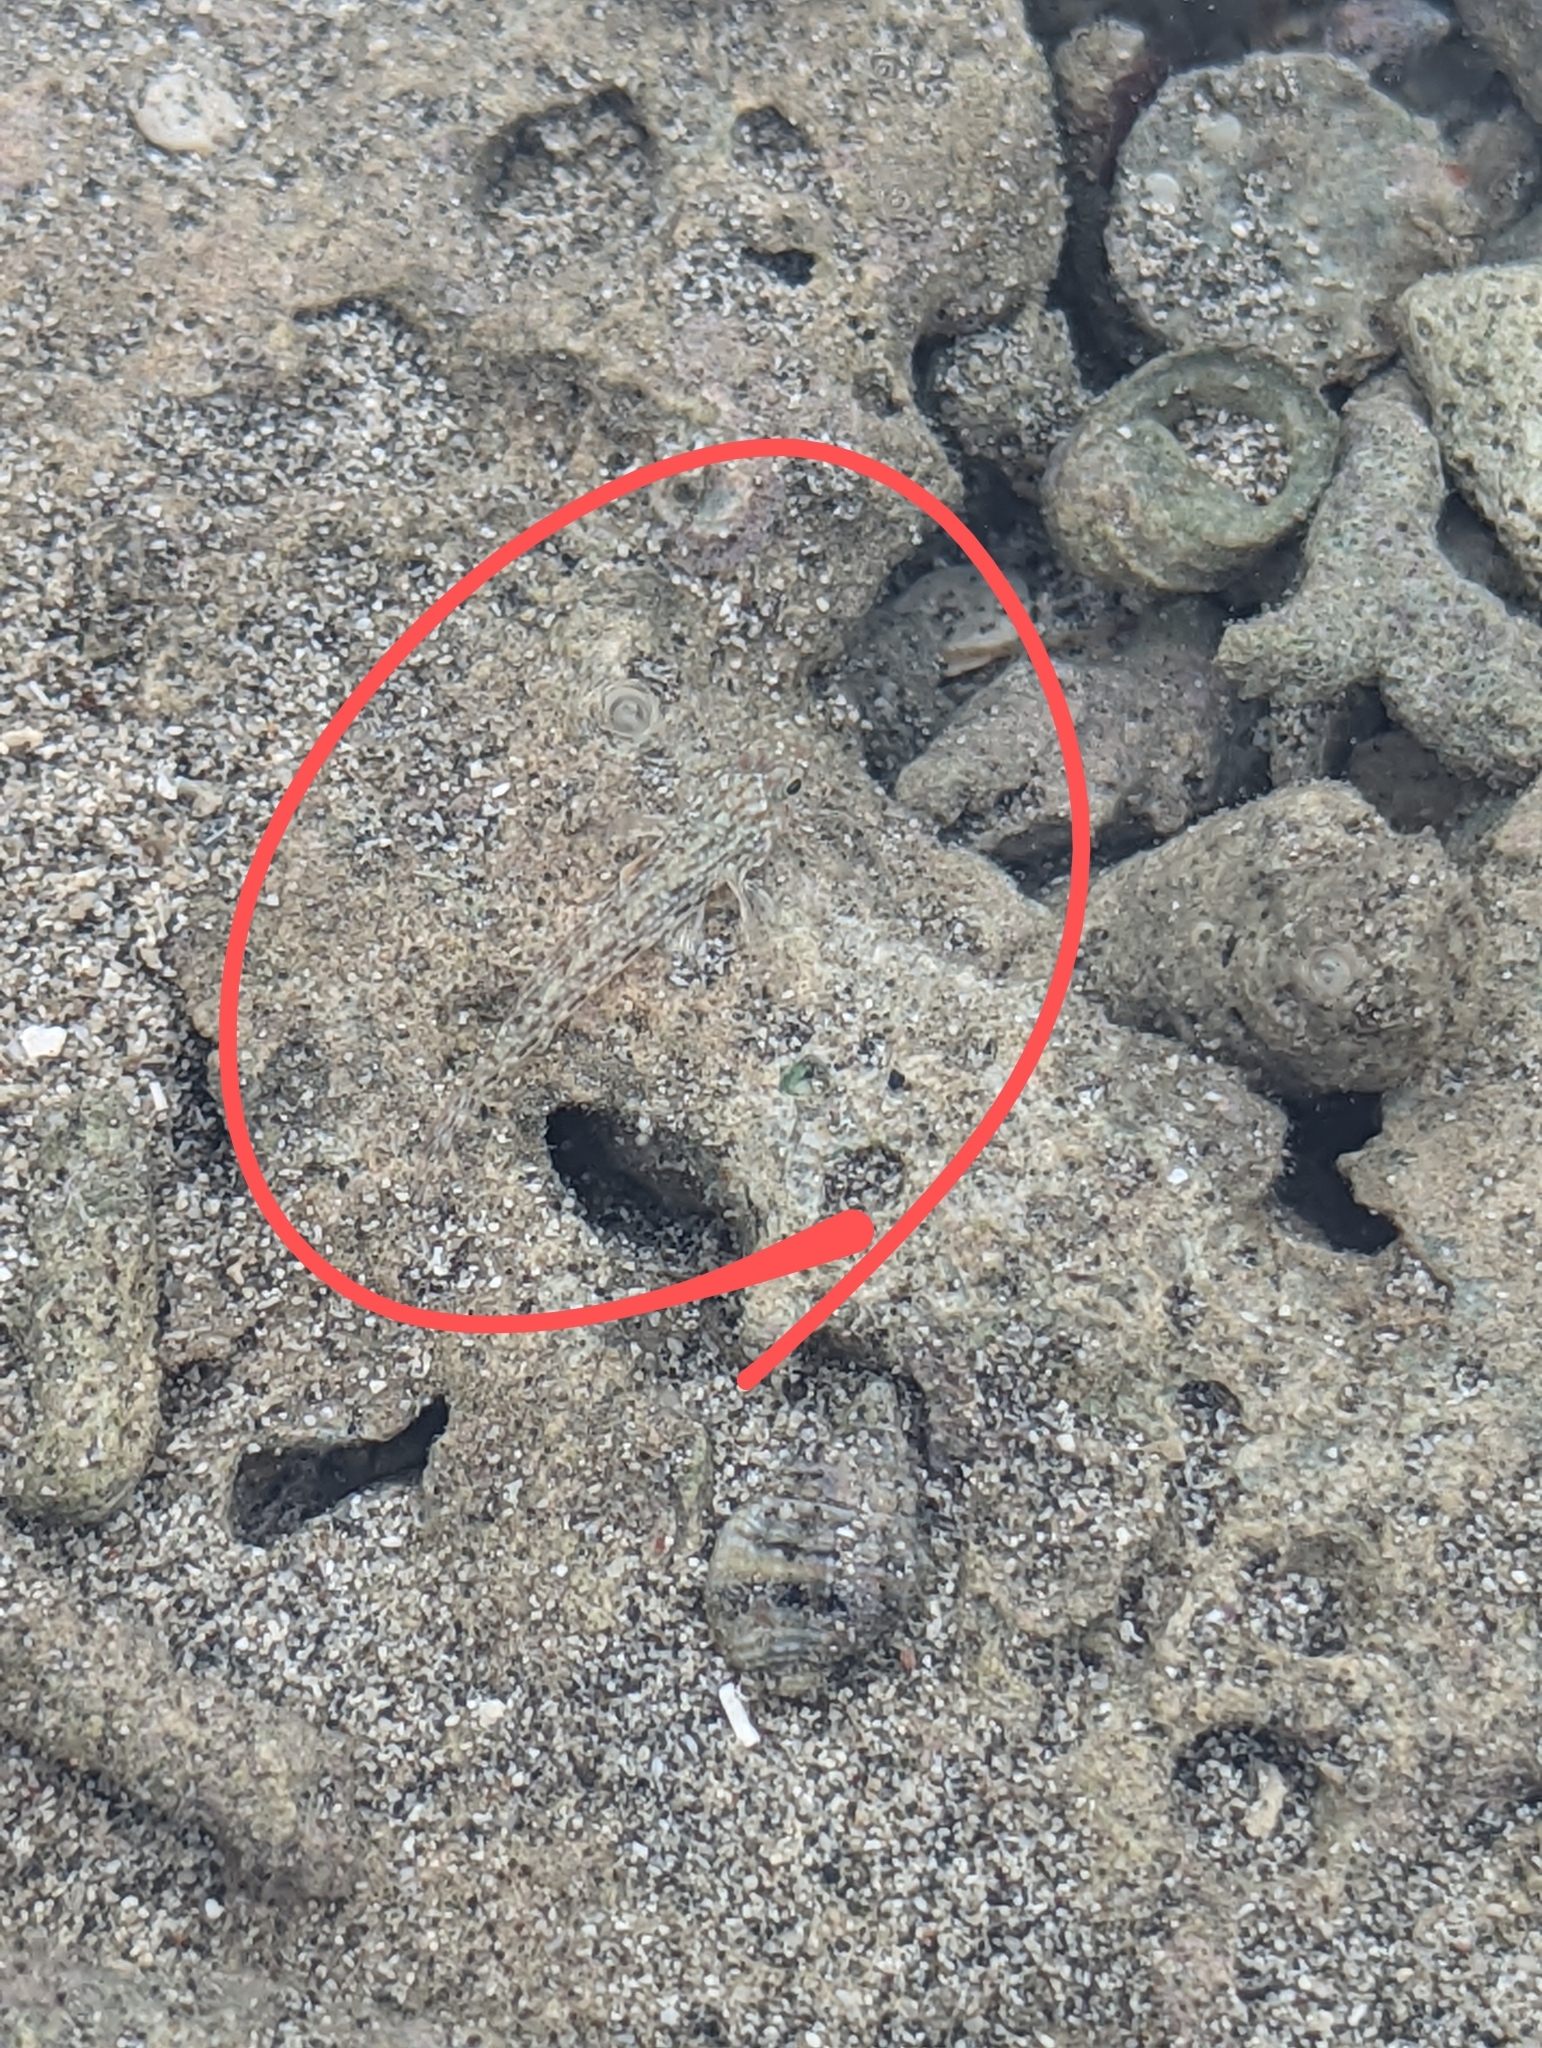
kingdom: Animalia
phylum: Chordata
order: Perciformes
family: Gobiidae
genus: Istigobius
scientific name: Istigobius ornatus
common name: Ornate goby
